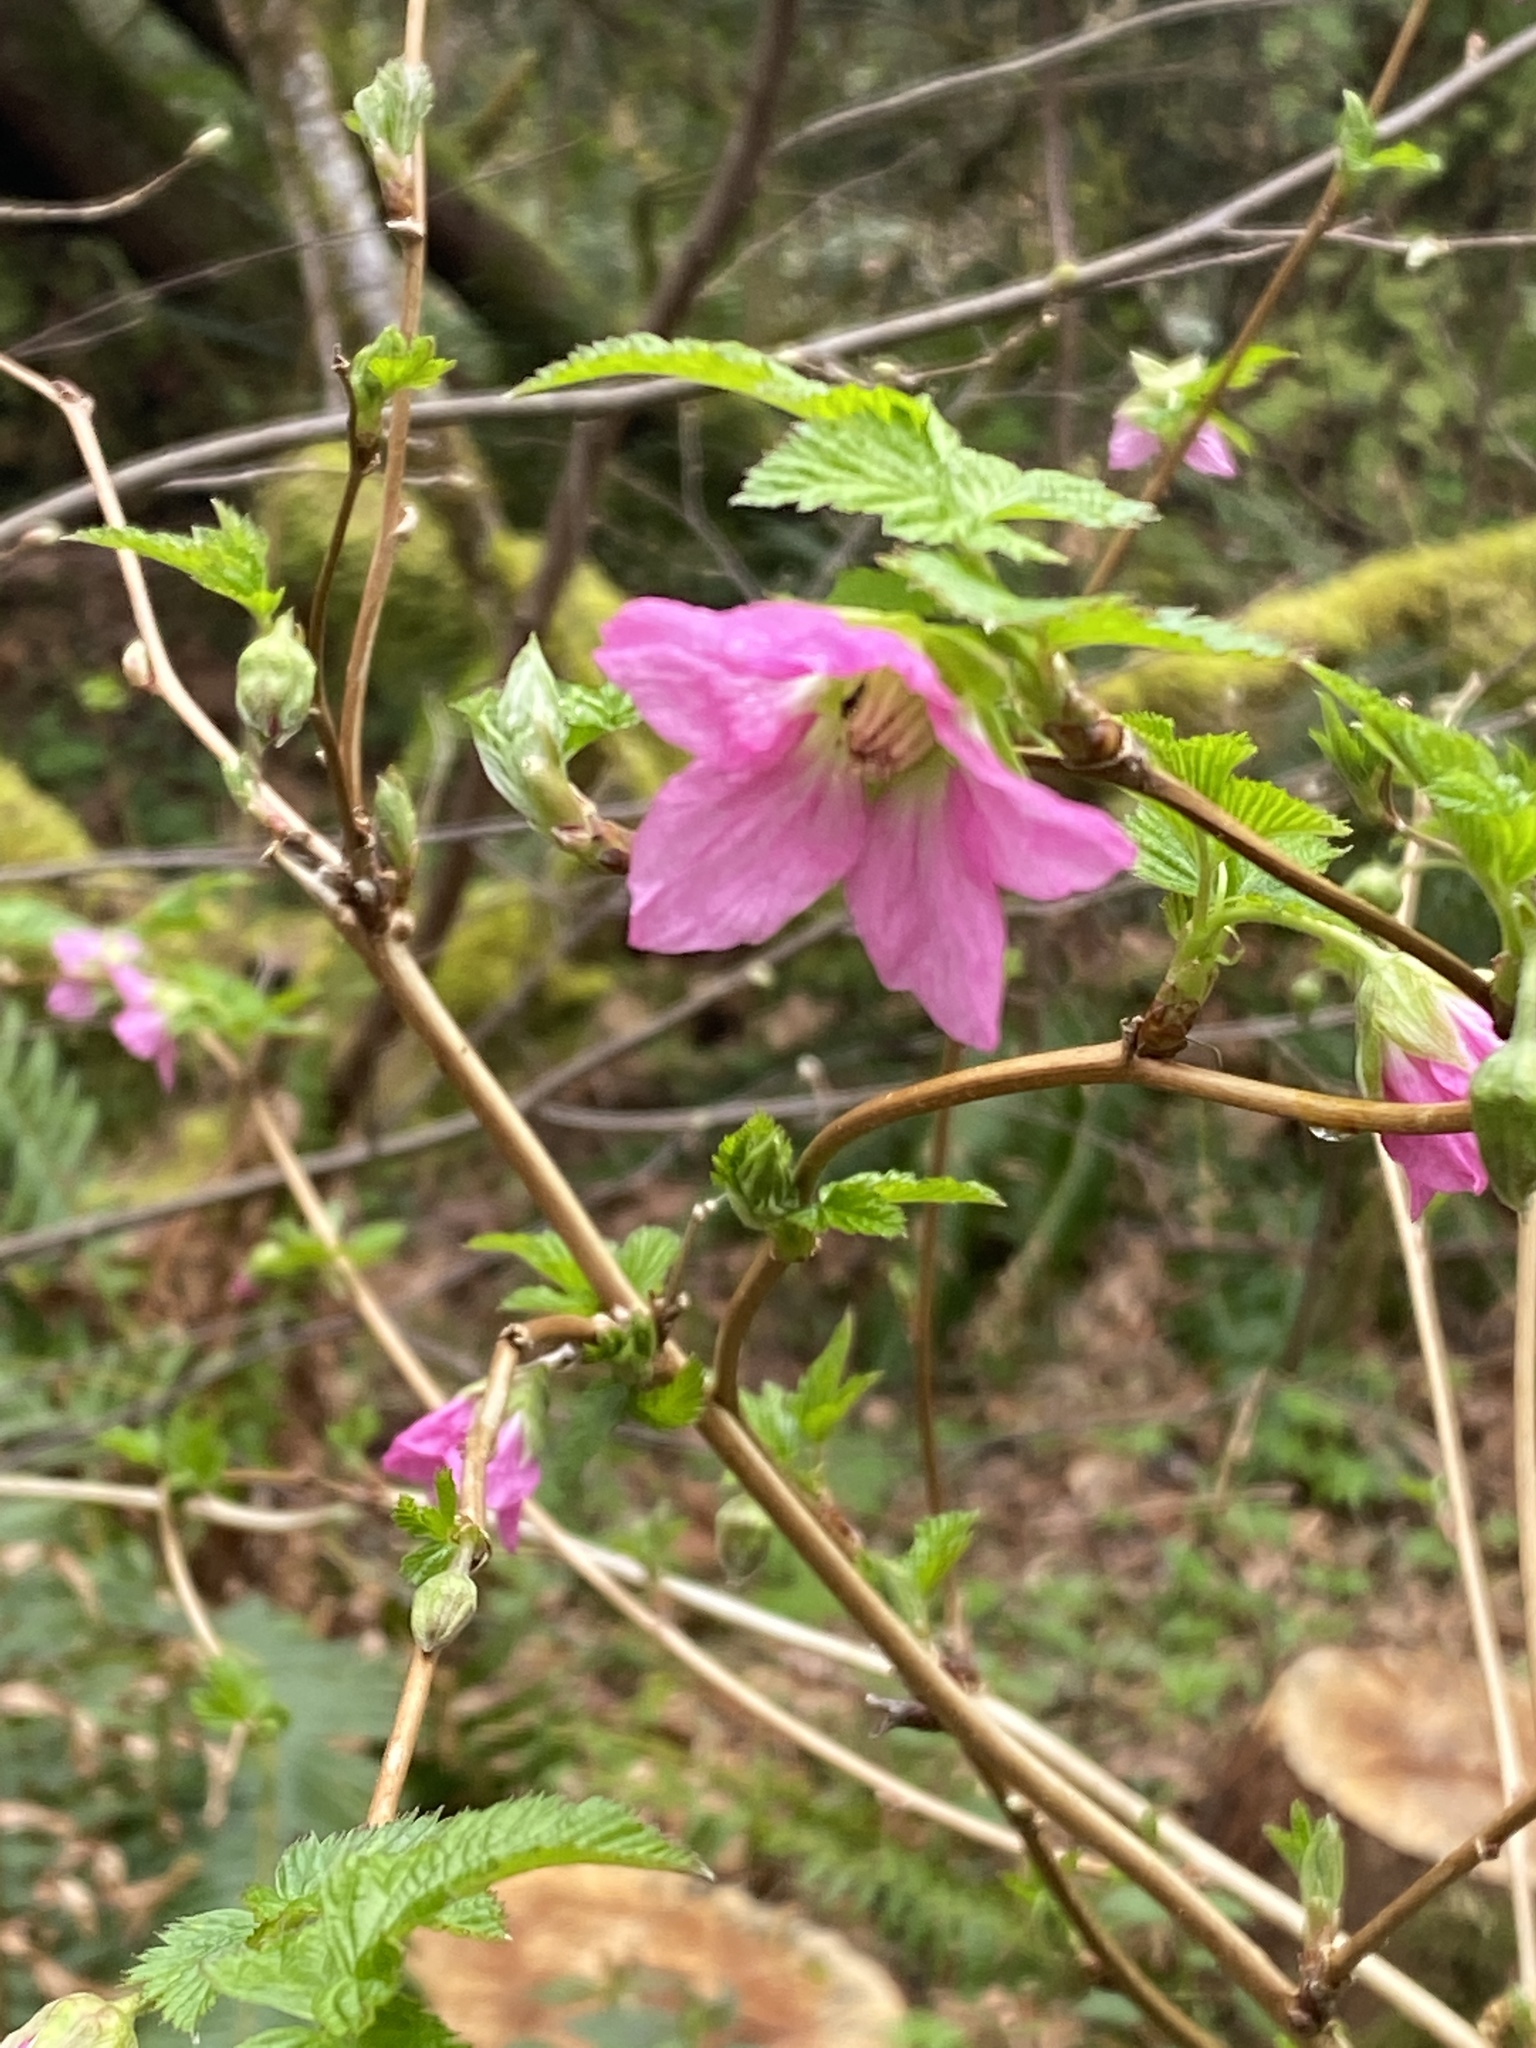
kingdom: Plantae
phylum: Tracheophyta
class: Magnoliopsida
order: Rosales
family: Rosaceae
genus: Rubus
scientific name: Rubus spectabilis
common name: Salmonberry
